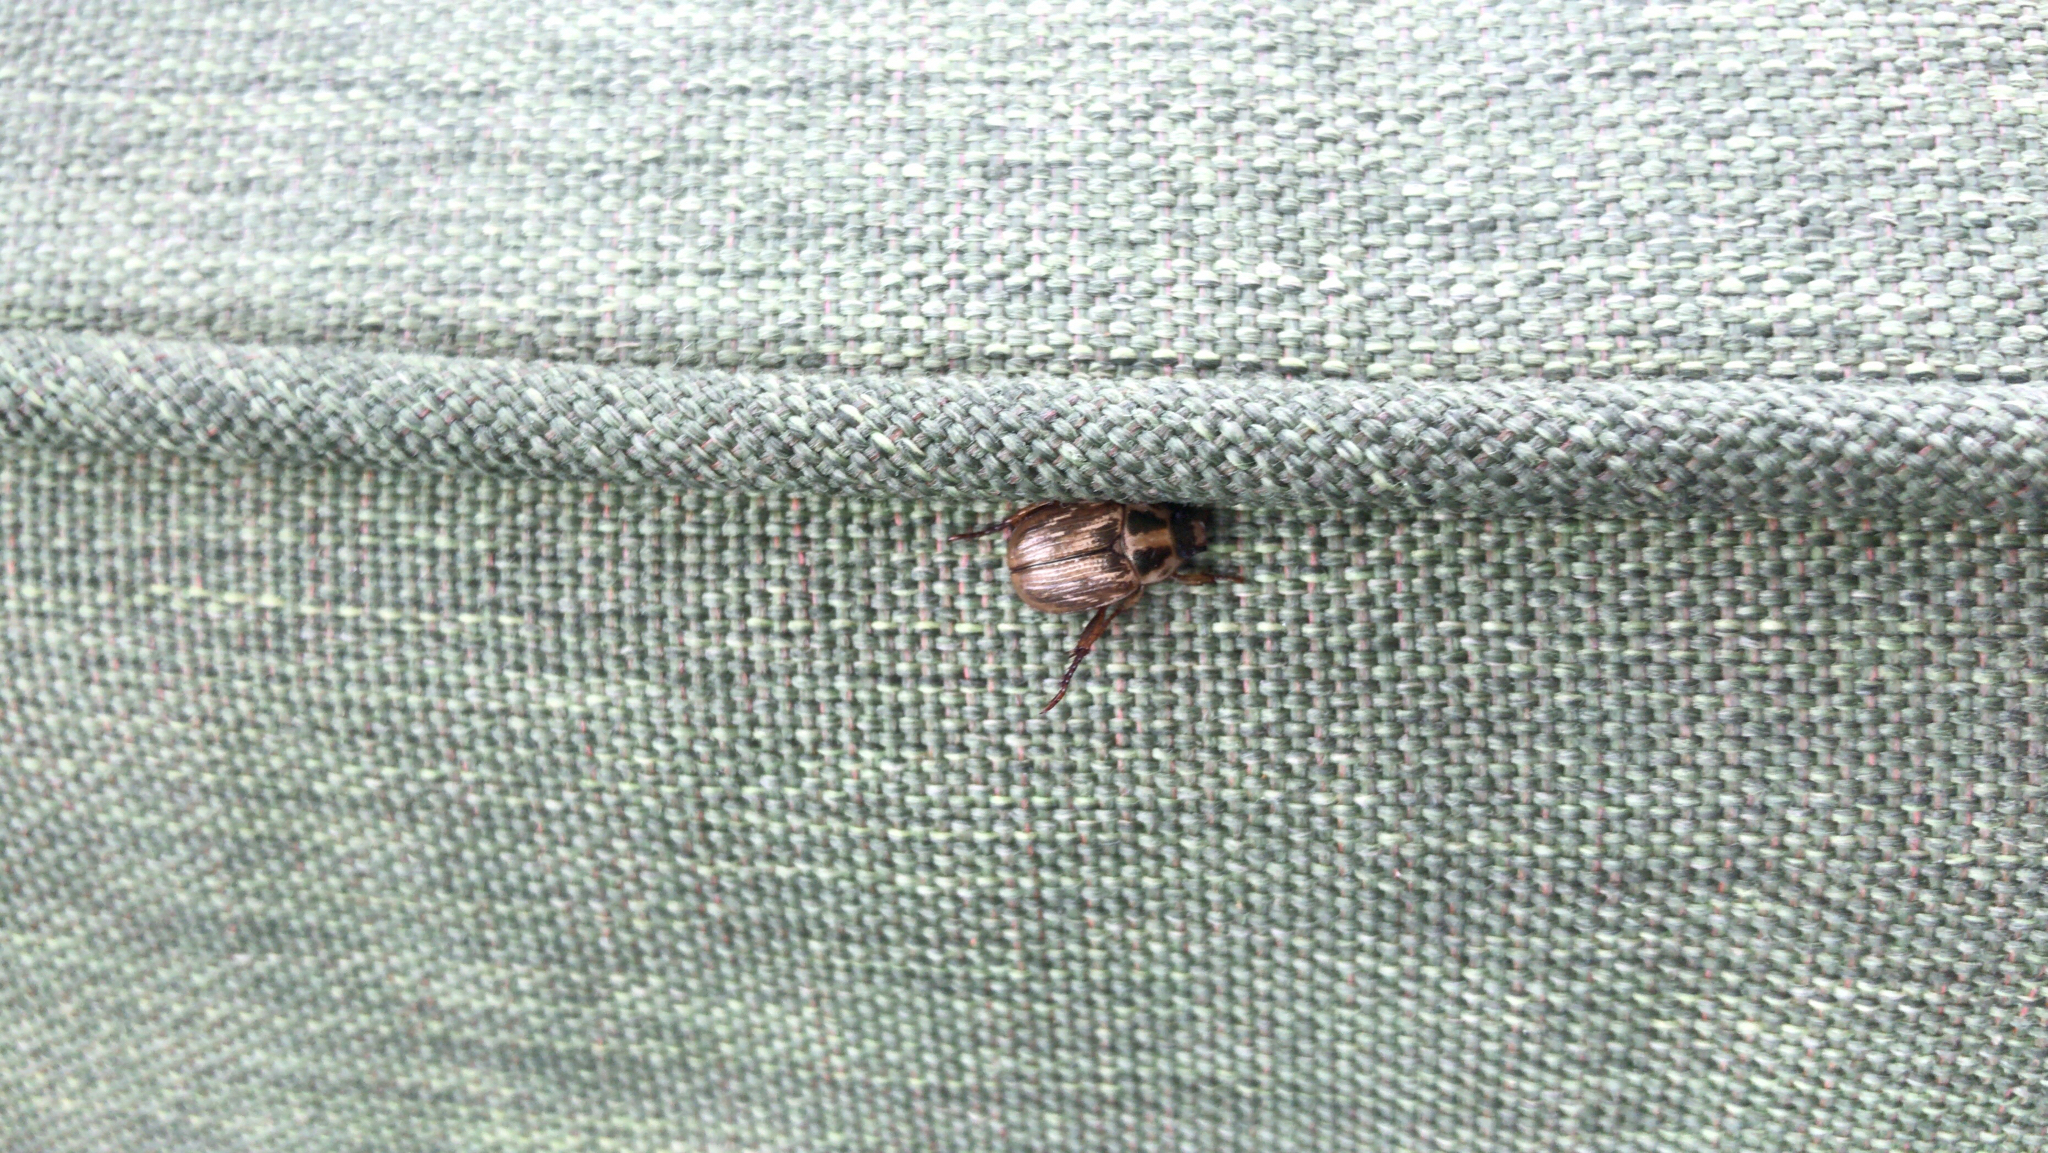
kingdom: Animalia
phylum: Arthropoda
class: Insecta
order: Coleoptera
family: Scarabaeidae
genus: Exomala
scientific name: Exomala orientalis
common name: Oriental beetle
